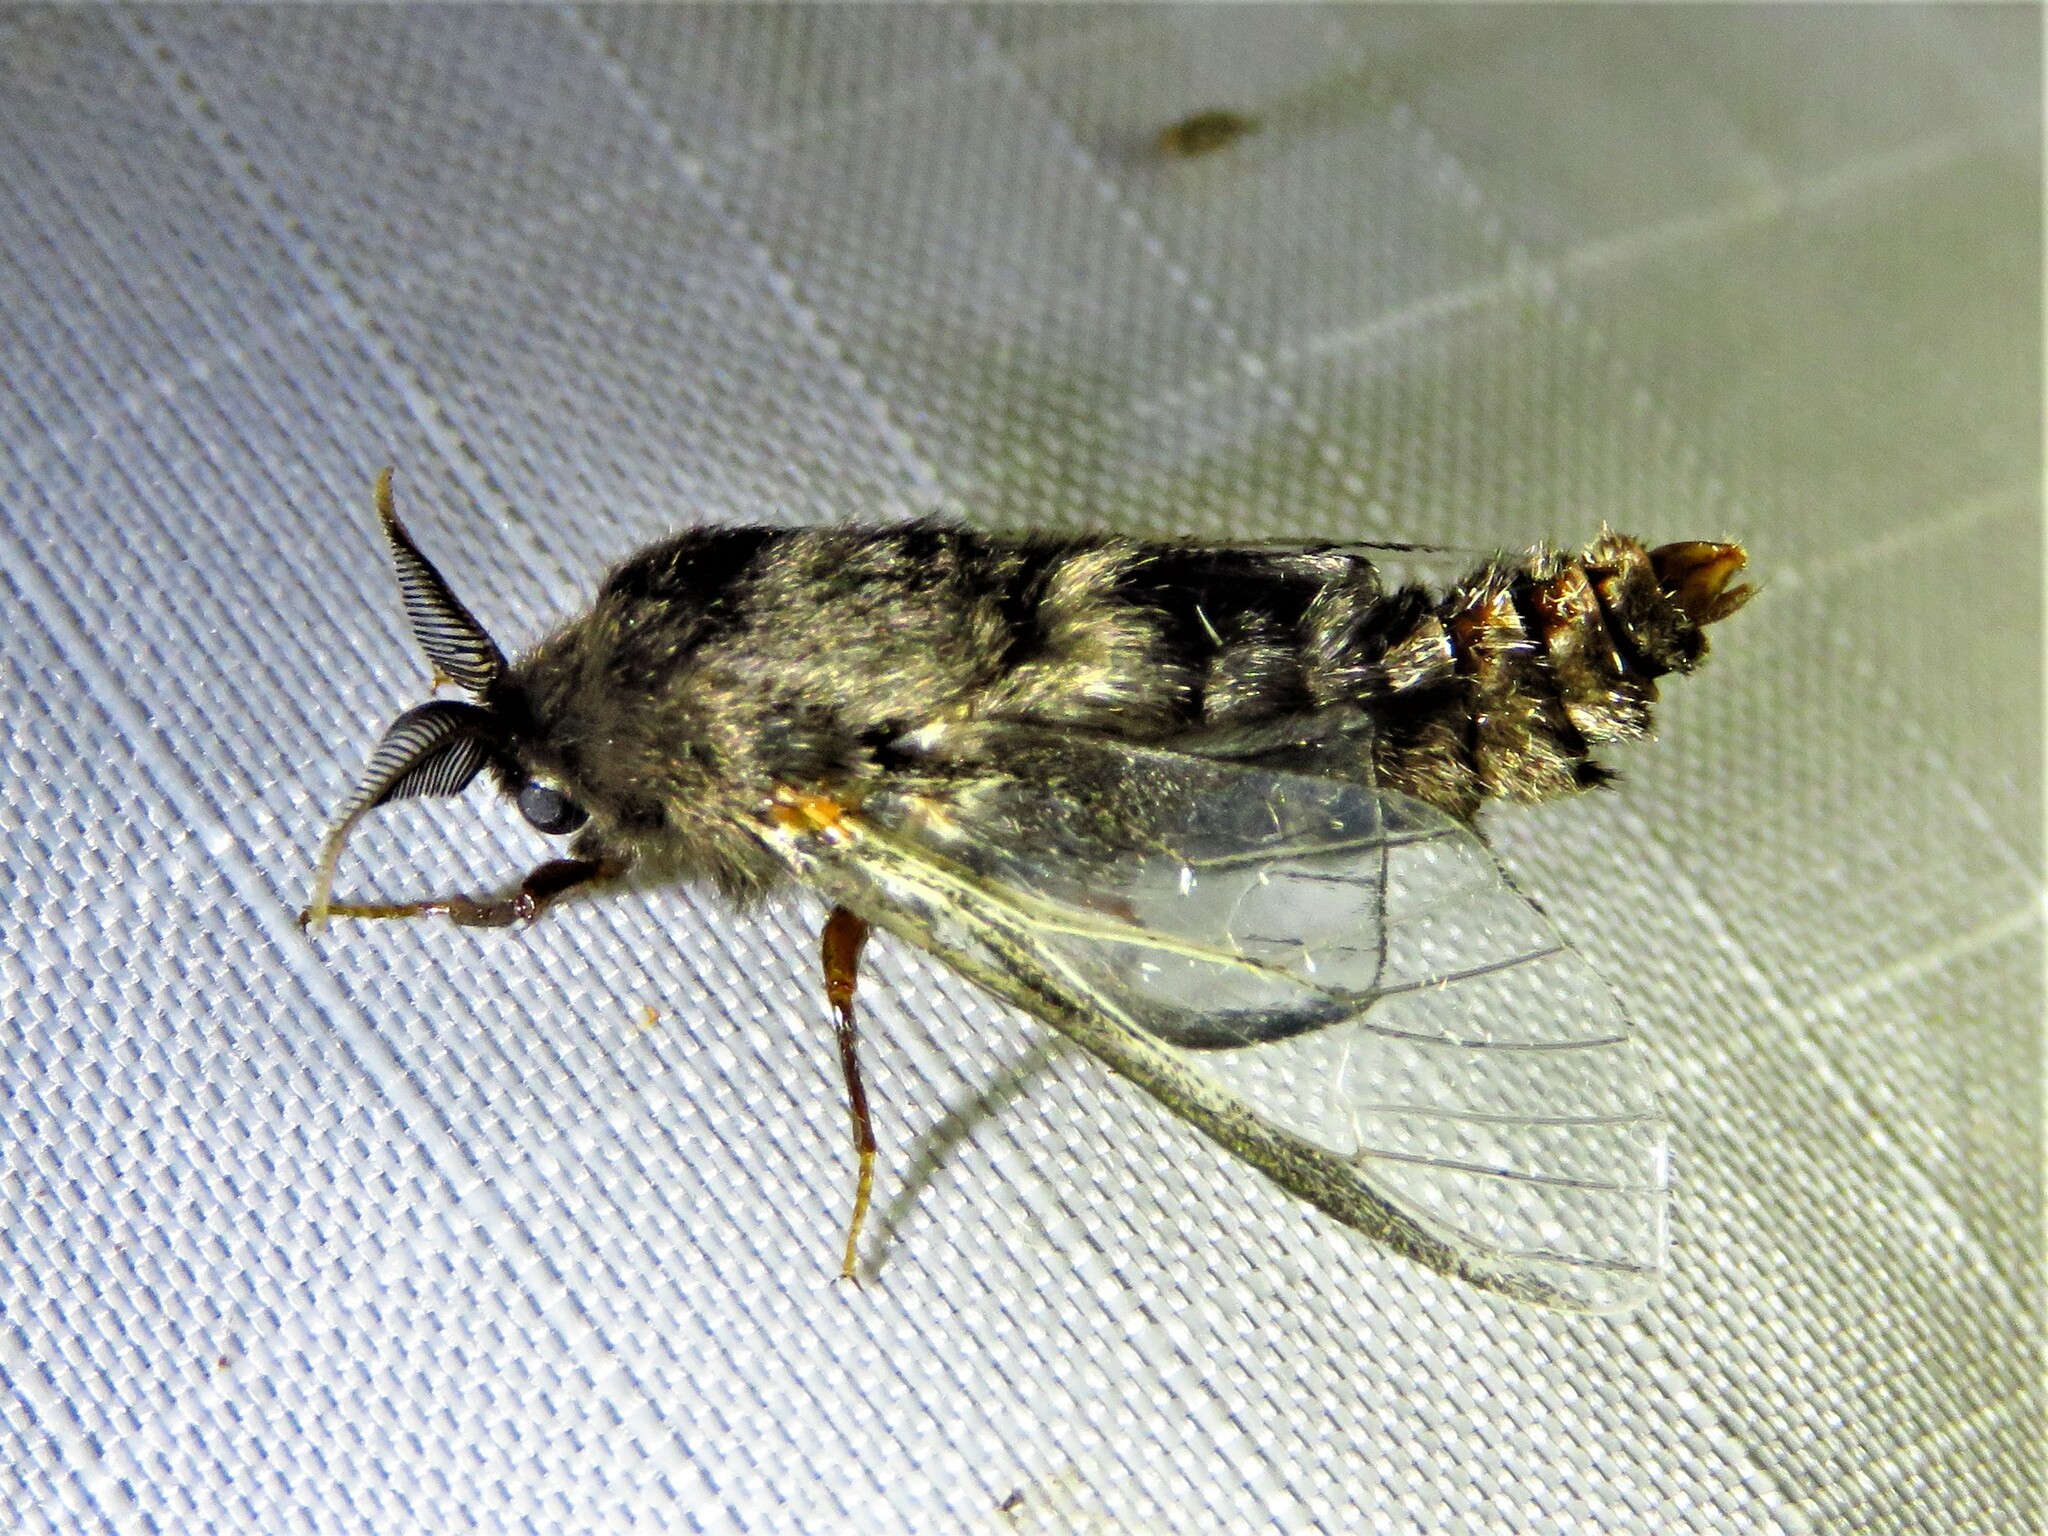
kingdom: Animalia
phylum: Arthropoda
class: Insecta
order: Lepidoptera
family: Psychidae
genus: Thyridopteryx
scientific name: Thyridopteryx ephemeraeformis
